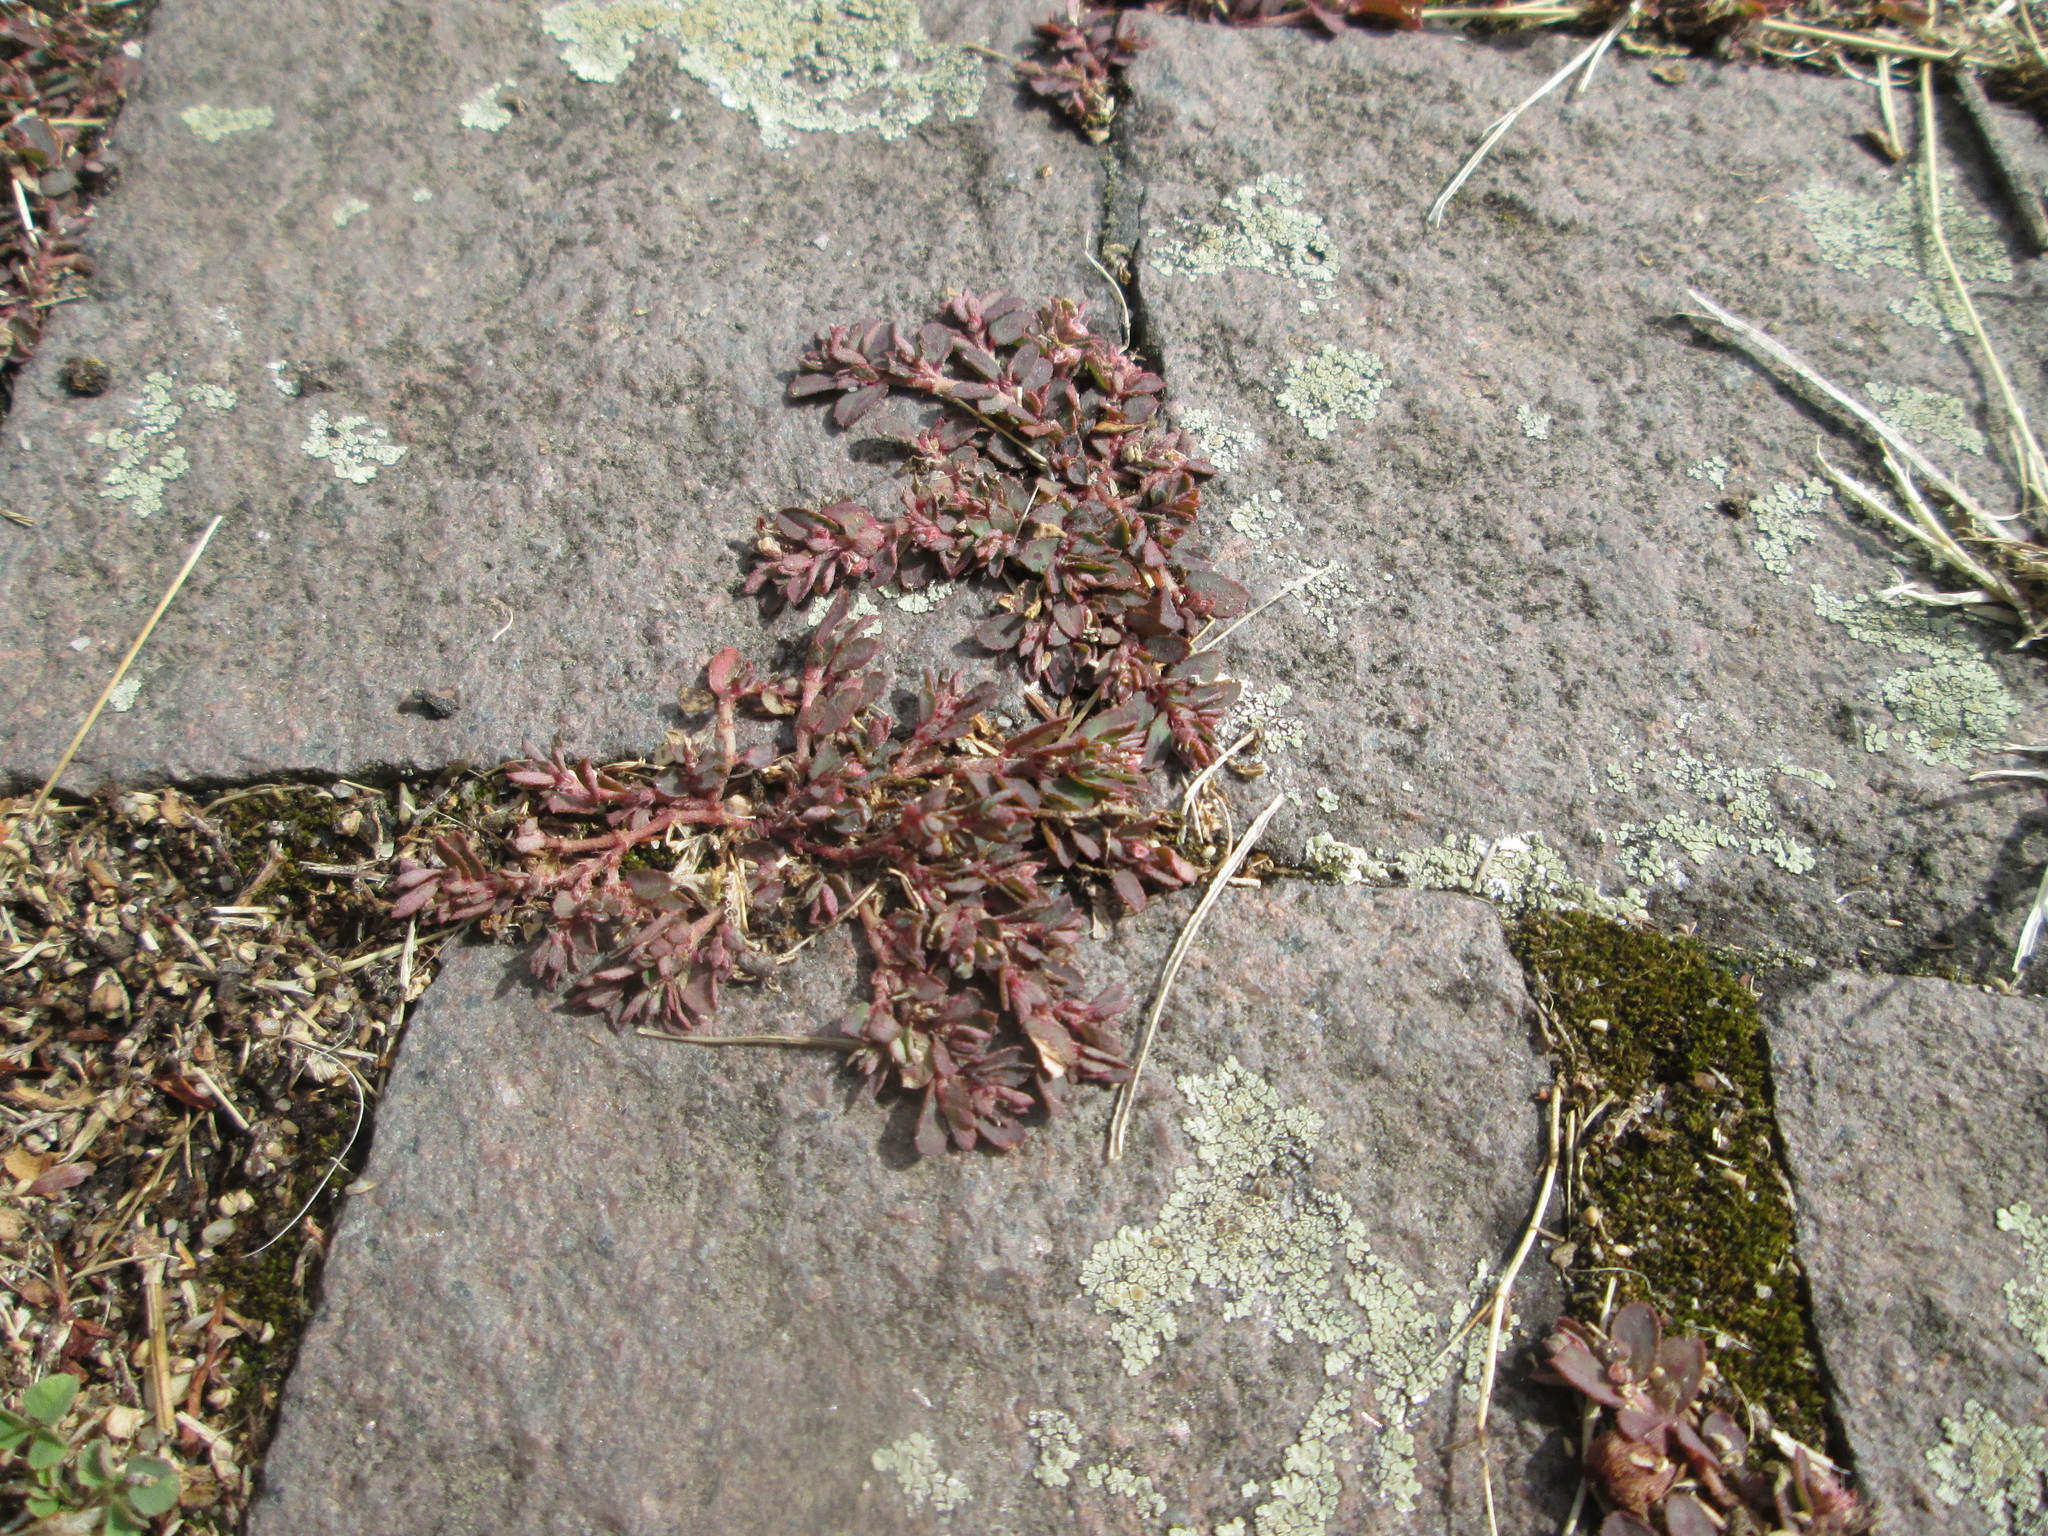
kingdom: Plantae
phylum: Tracheophyta
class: Magnoliopsida
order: Malpighiales
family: Euphorbiaceae
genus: Euphorbia
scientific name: Euphorbia maculata
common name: Spotted spurge
